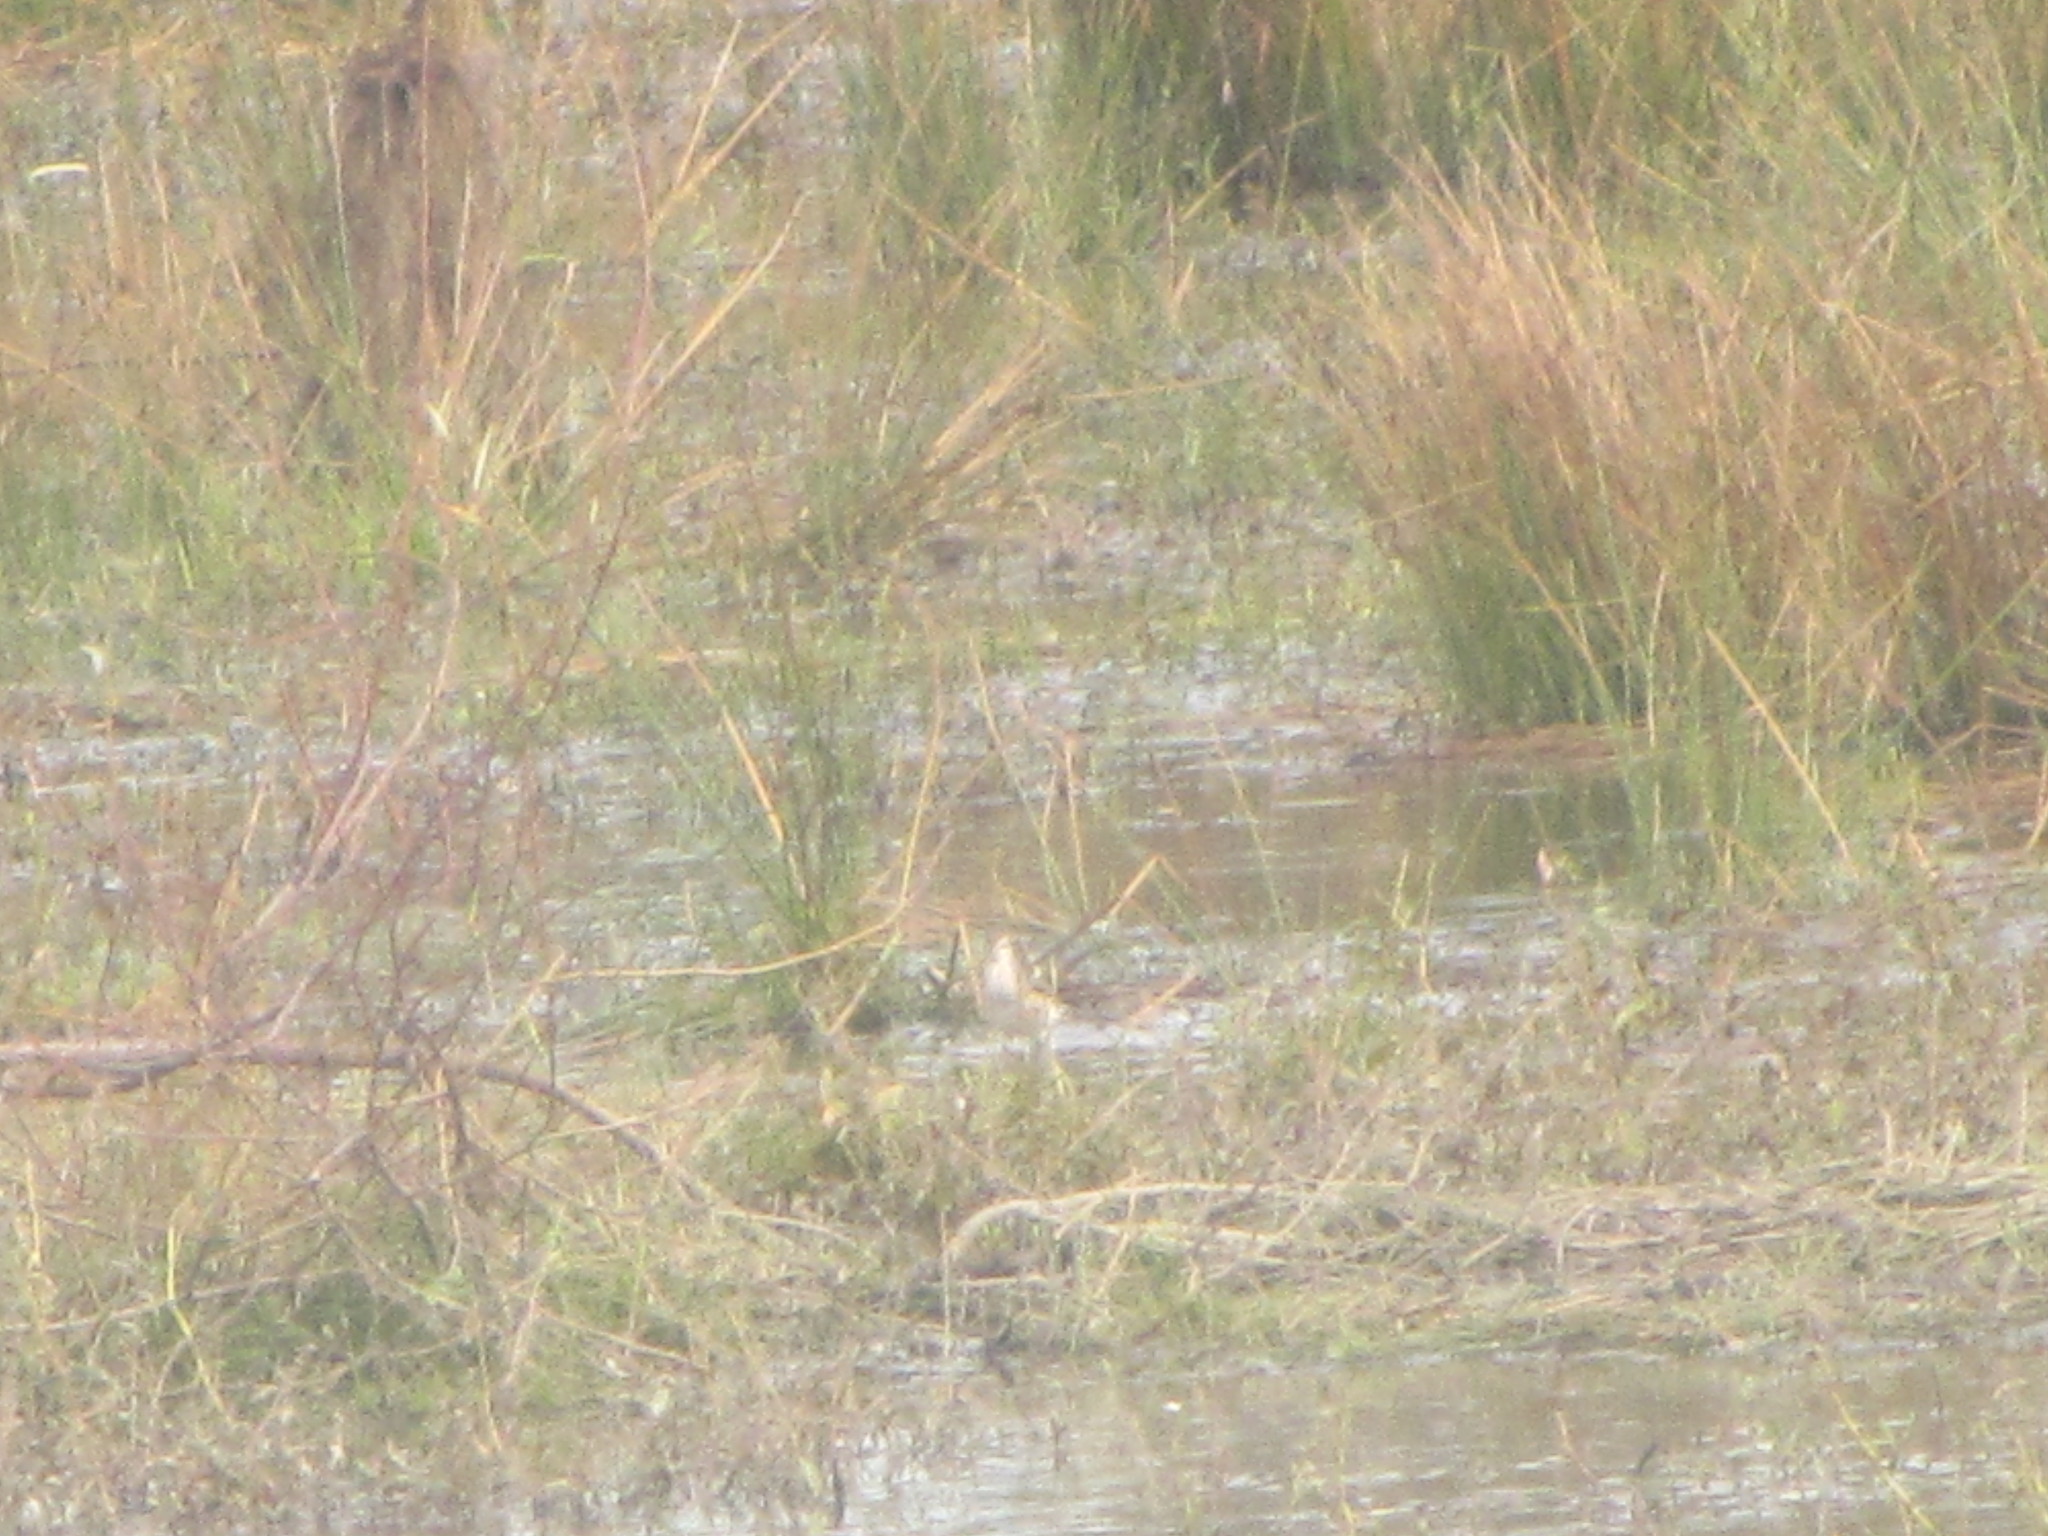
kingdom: Animalia
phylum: Chordata
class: Aves
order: Charadriiformes
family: Scolopacidae
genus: Tringa
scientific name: Tringa glareola
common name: Wood sandpiper
